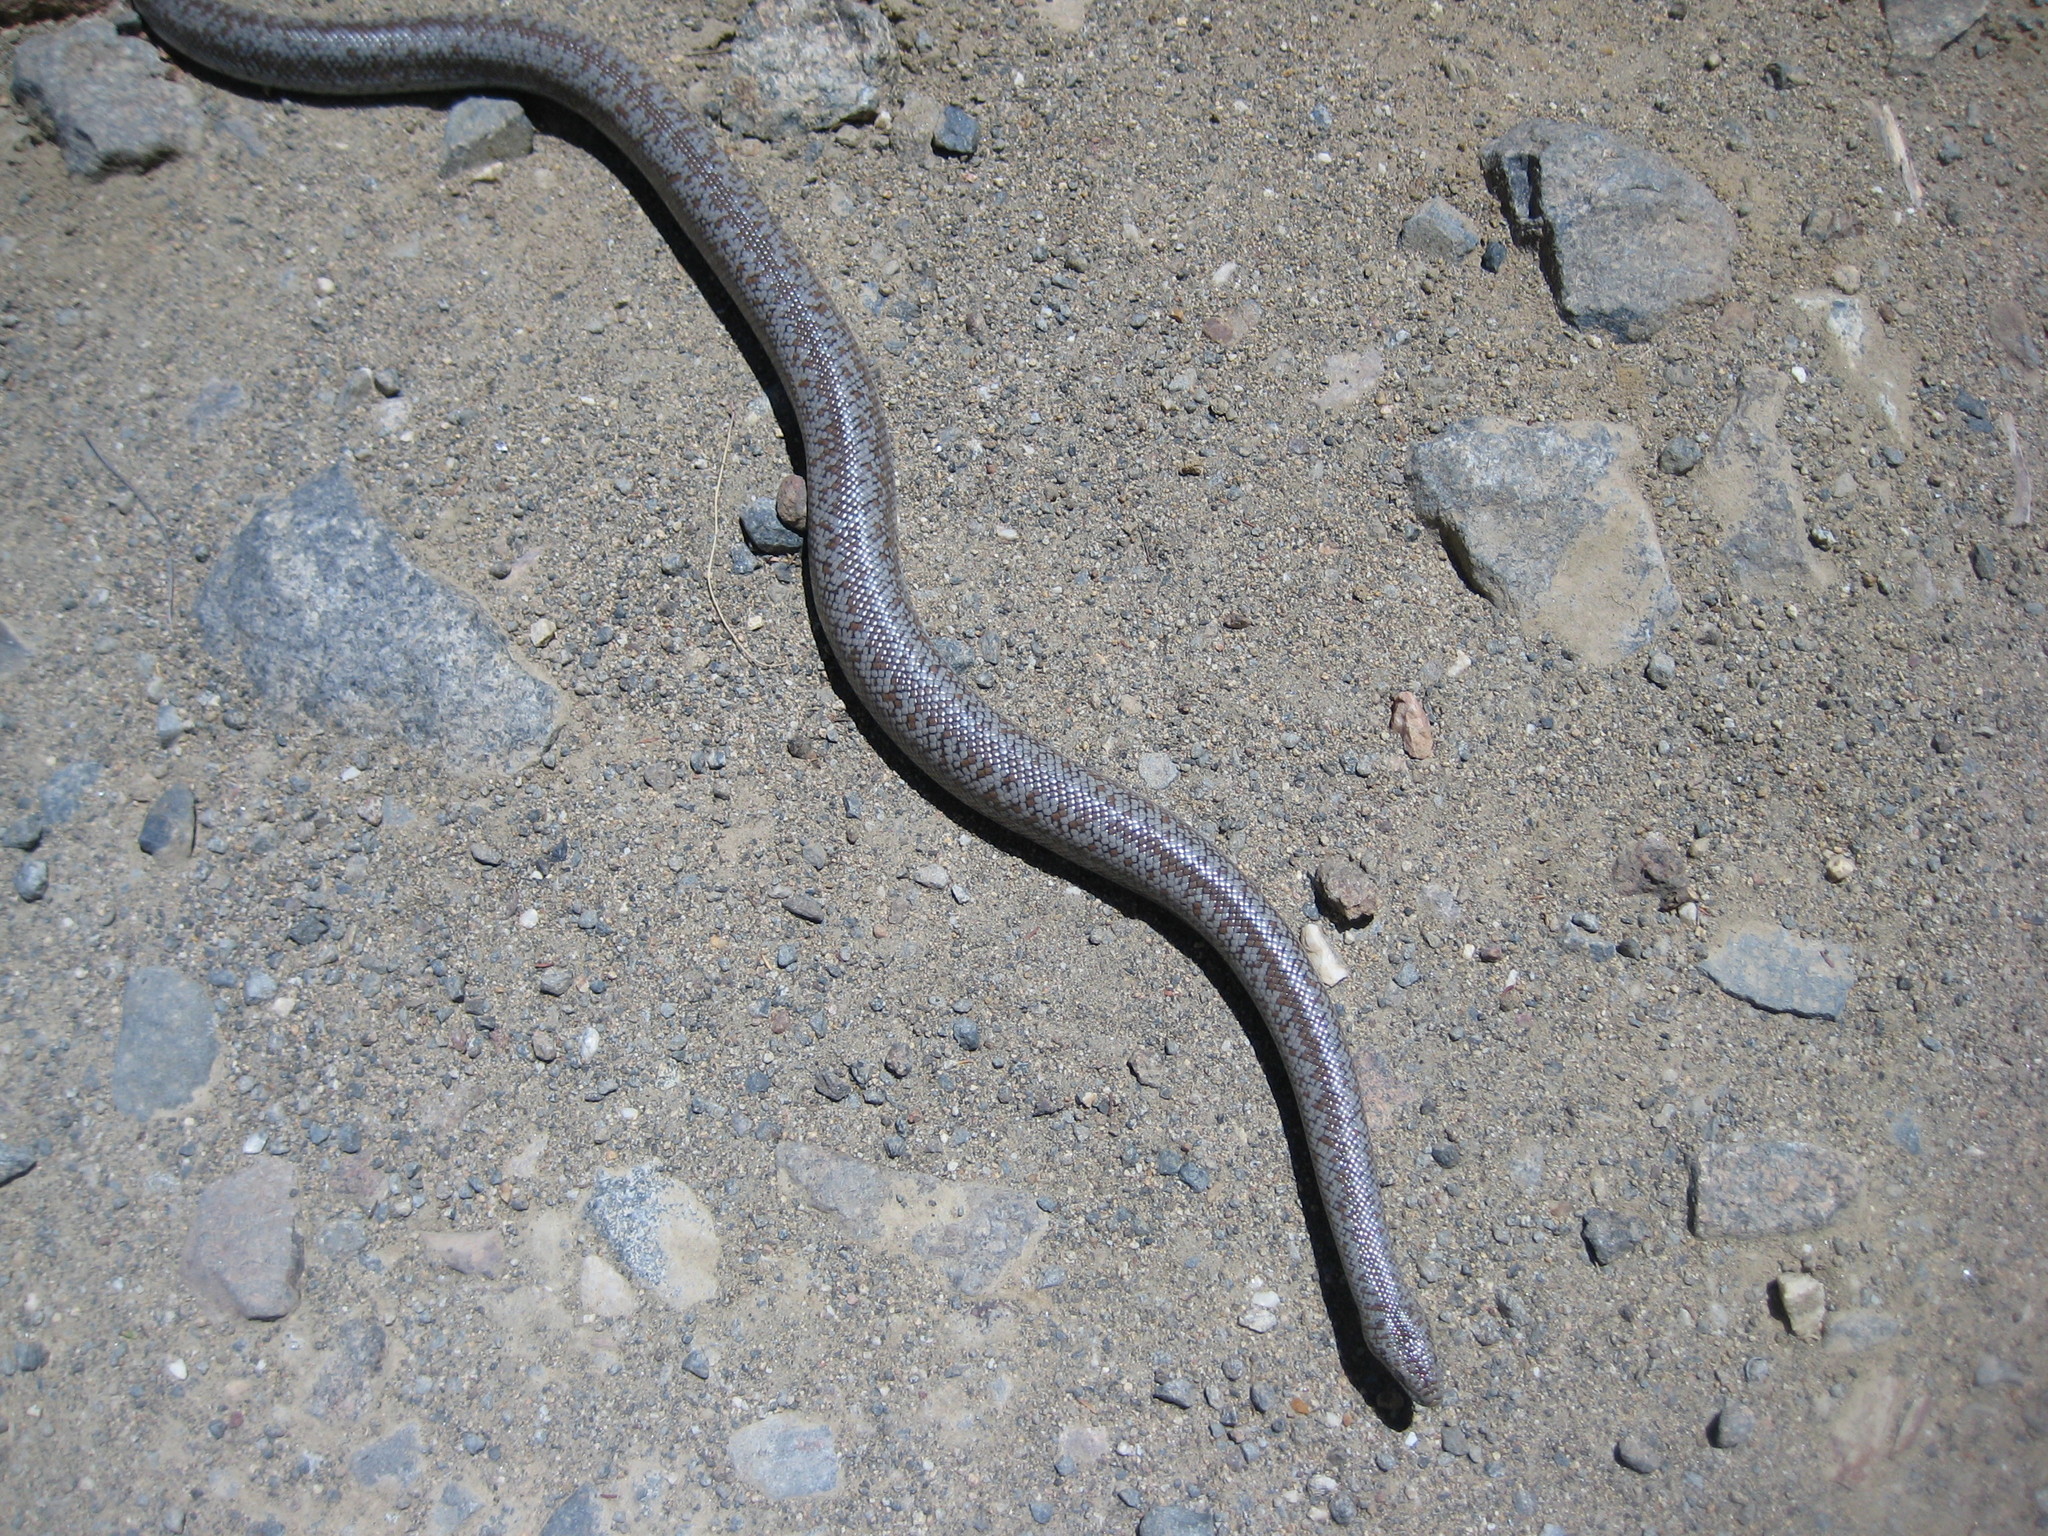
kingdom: Animalia
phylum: Chordata
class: Squamata
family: Boidae
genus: Lichanura
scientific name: Lichanura orcutti
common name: Northern three-lined boa
